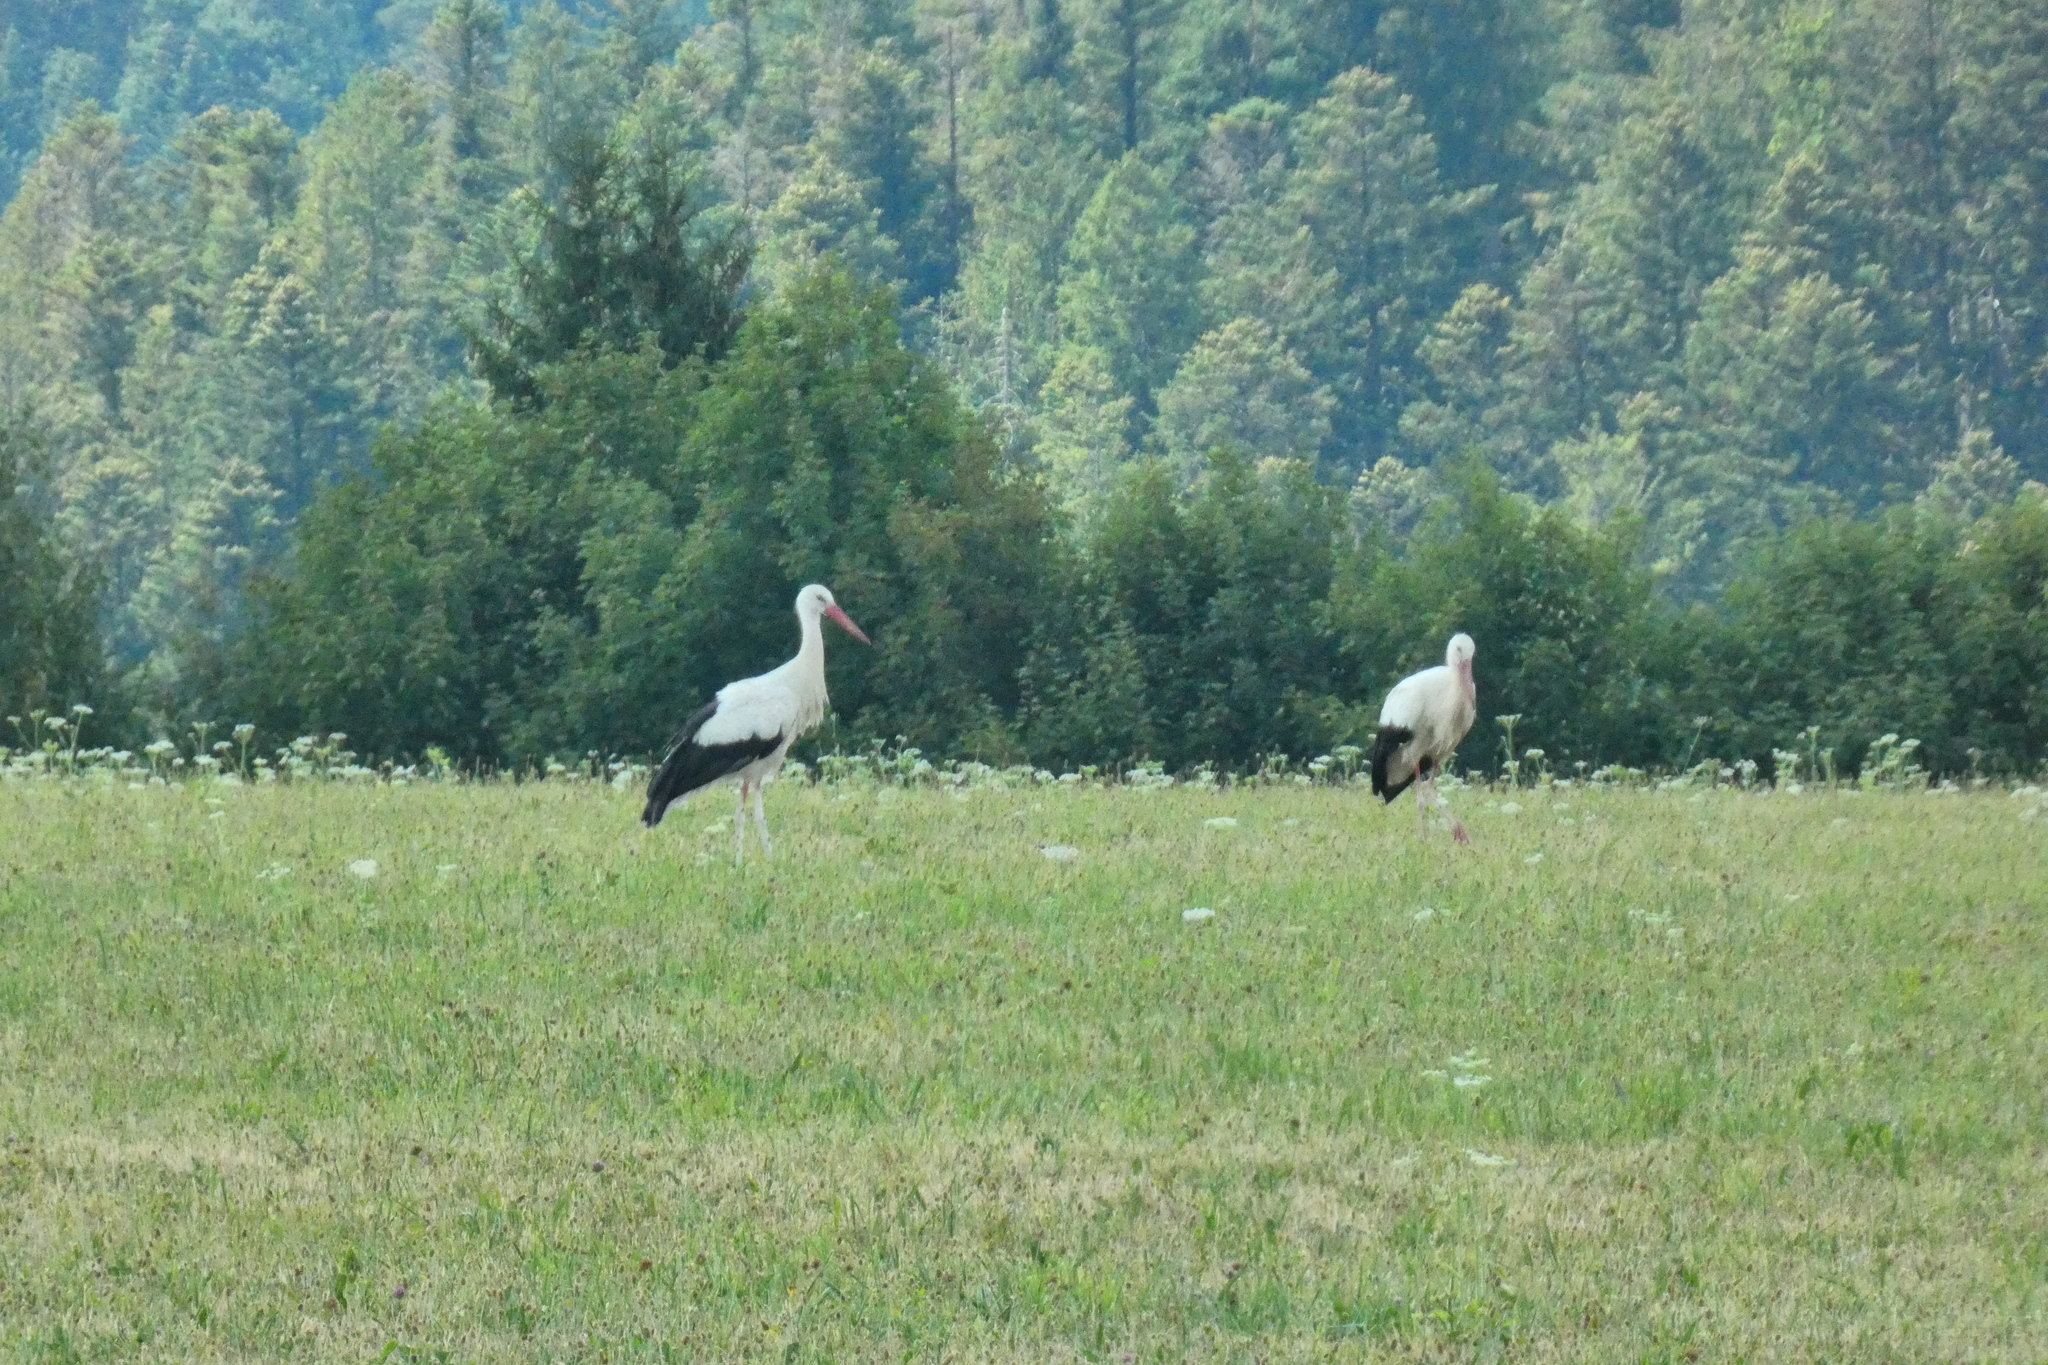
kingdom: Animalia
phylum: Chordata
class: Aves
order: Ciconiiformes
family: Ciconiidae
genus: Ciconia
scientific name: Ciconia ciconia
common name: White stork
